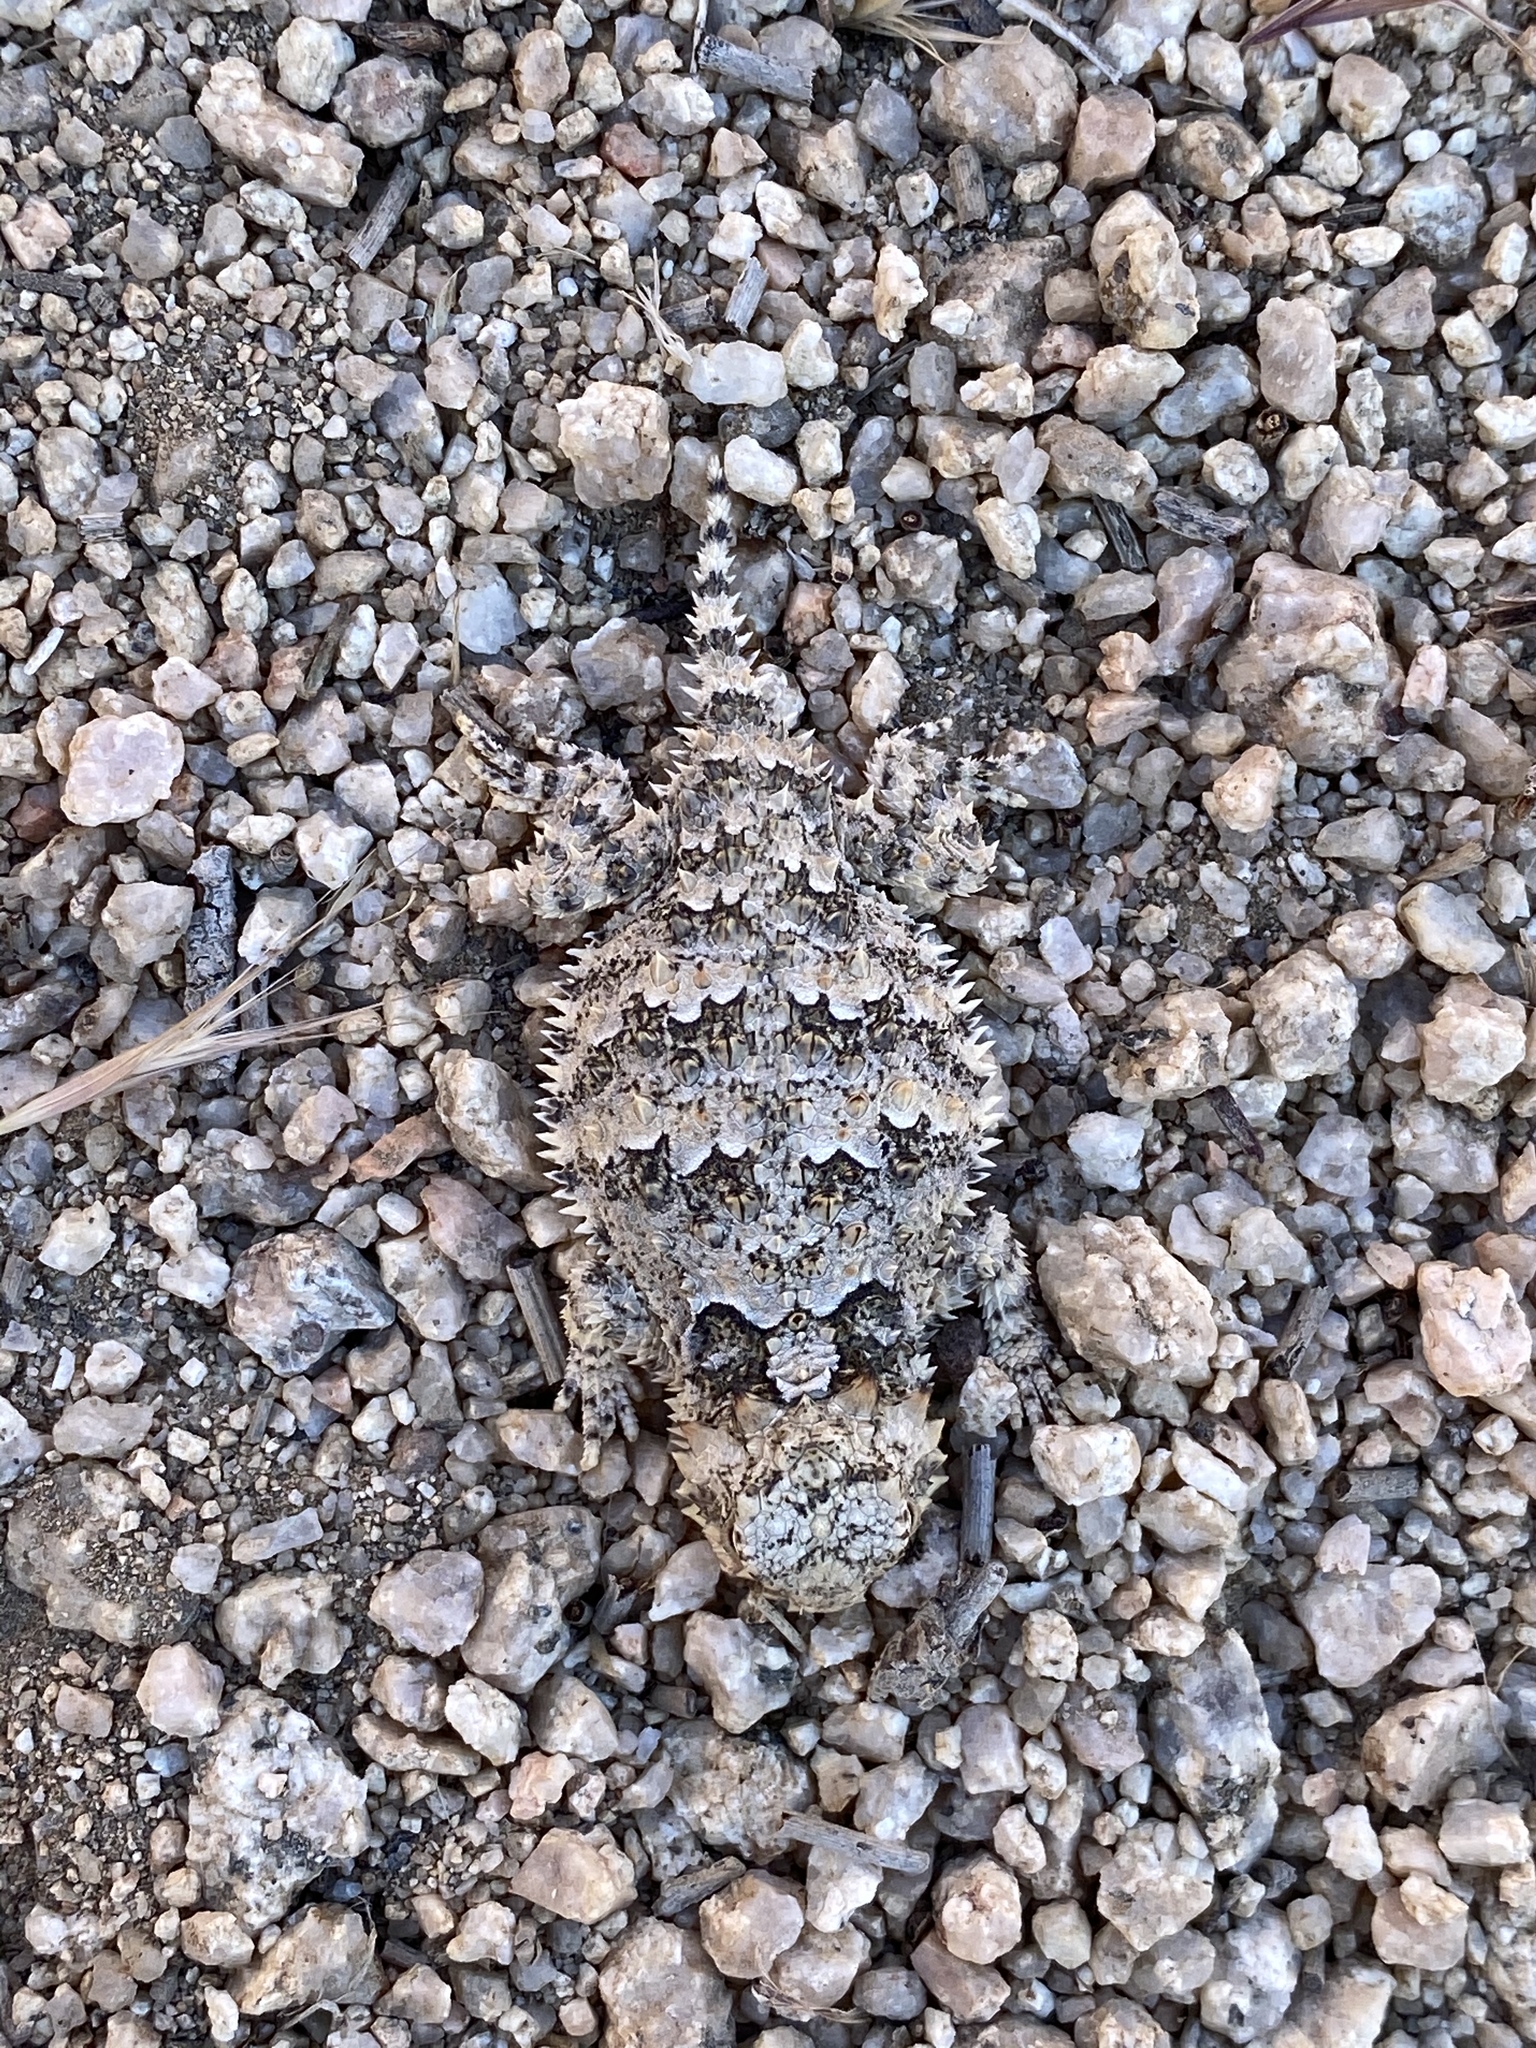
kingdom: Animalia
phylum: Chordata
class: Squamata
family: Phrynosomatidae
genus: Phrynosoma
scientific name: Phrynosoma blainvillii
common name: San diego horned lizard
